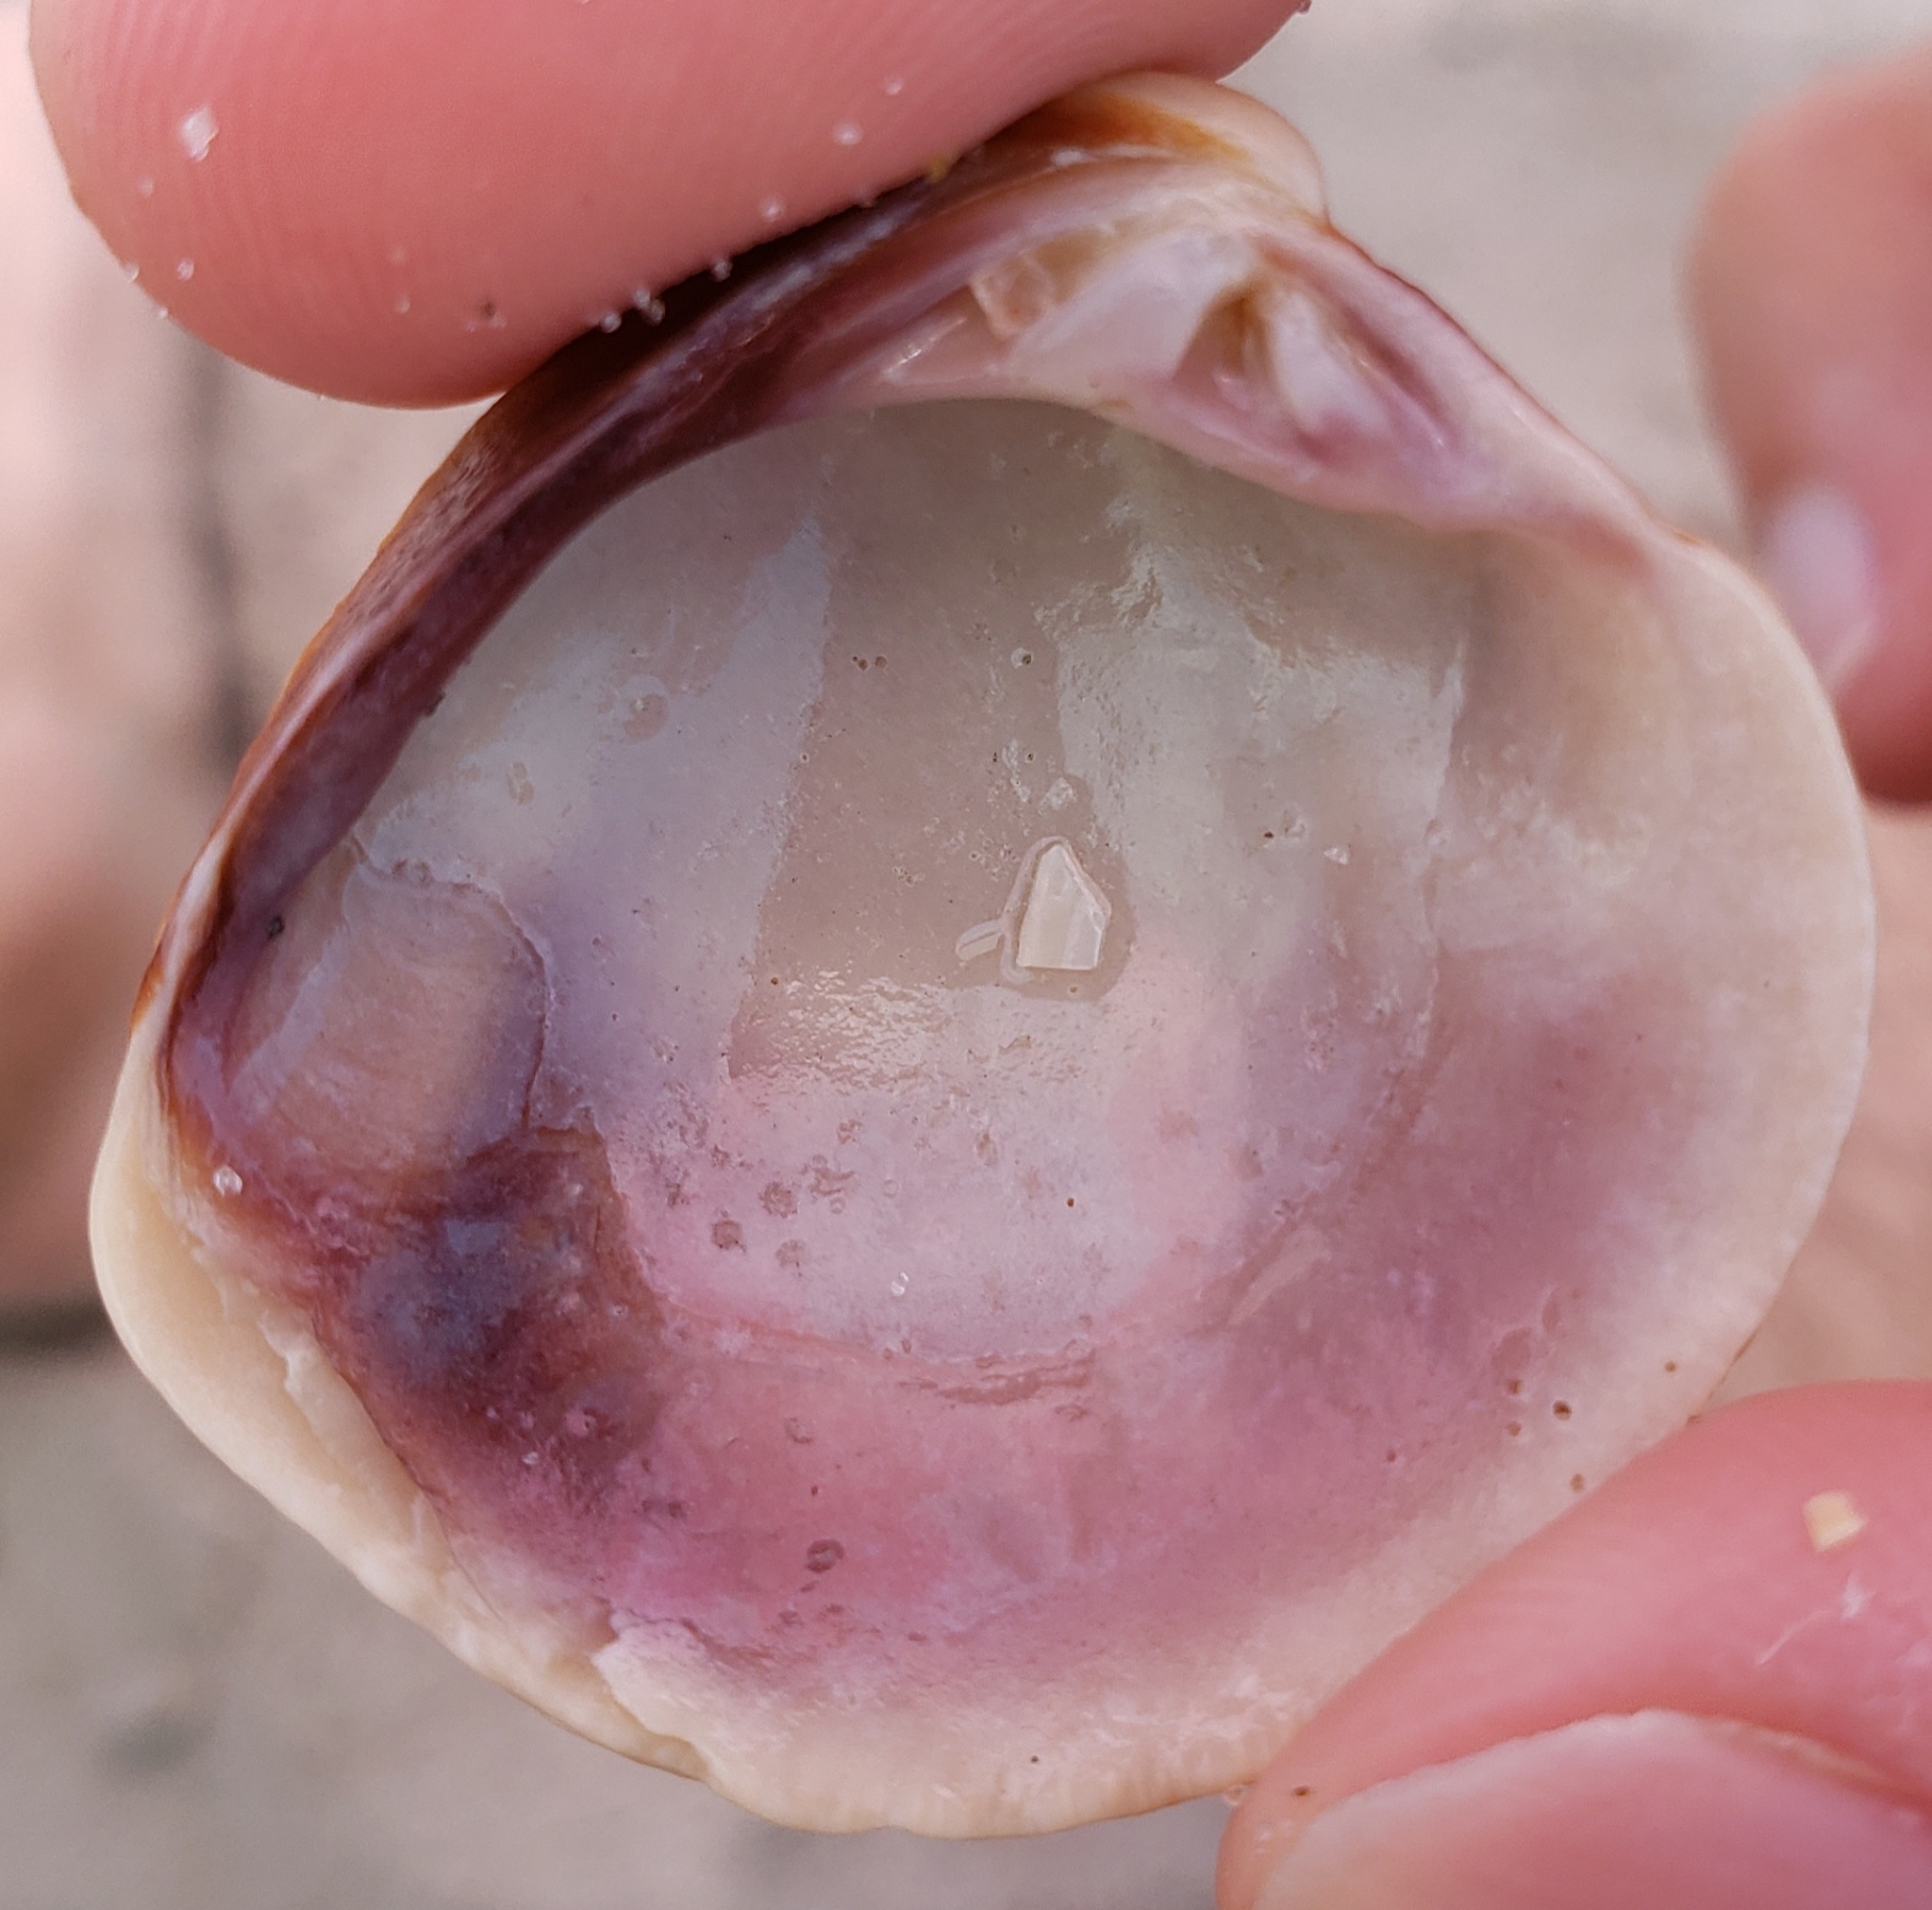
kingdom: Animalia
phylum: Mollusca
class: Bivalvia
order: Venerida
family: Veneridae
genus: Chione
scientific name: Chione elevata
